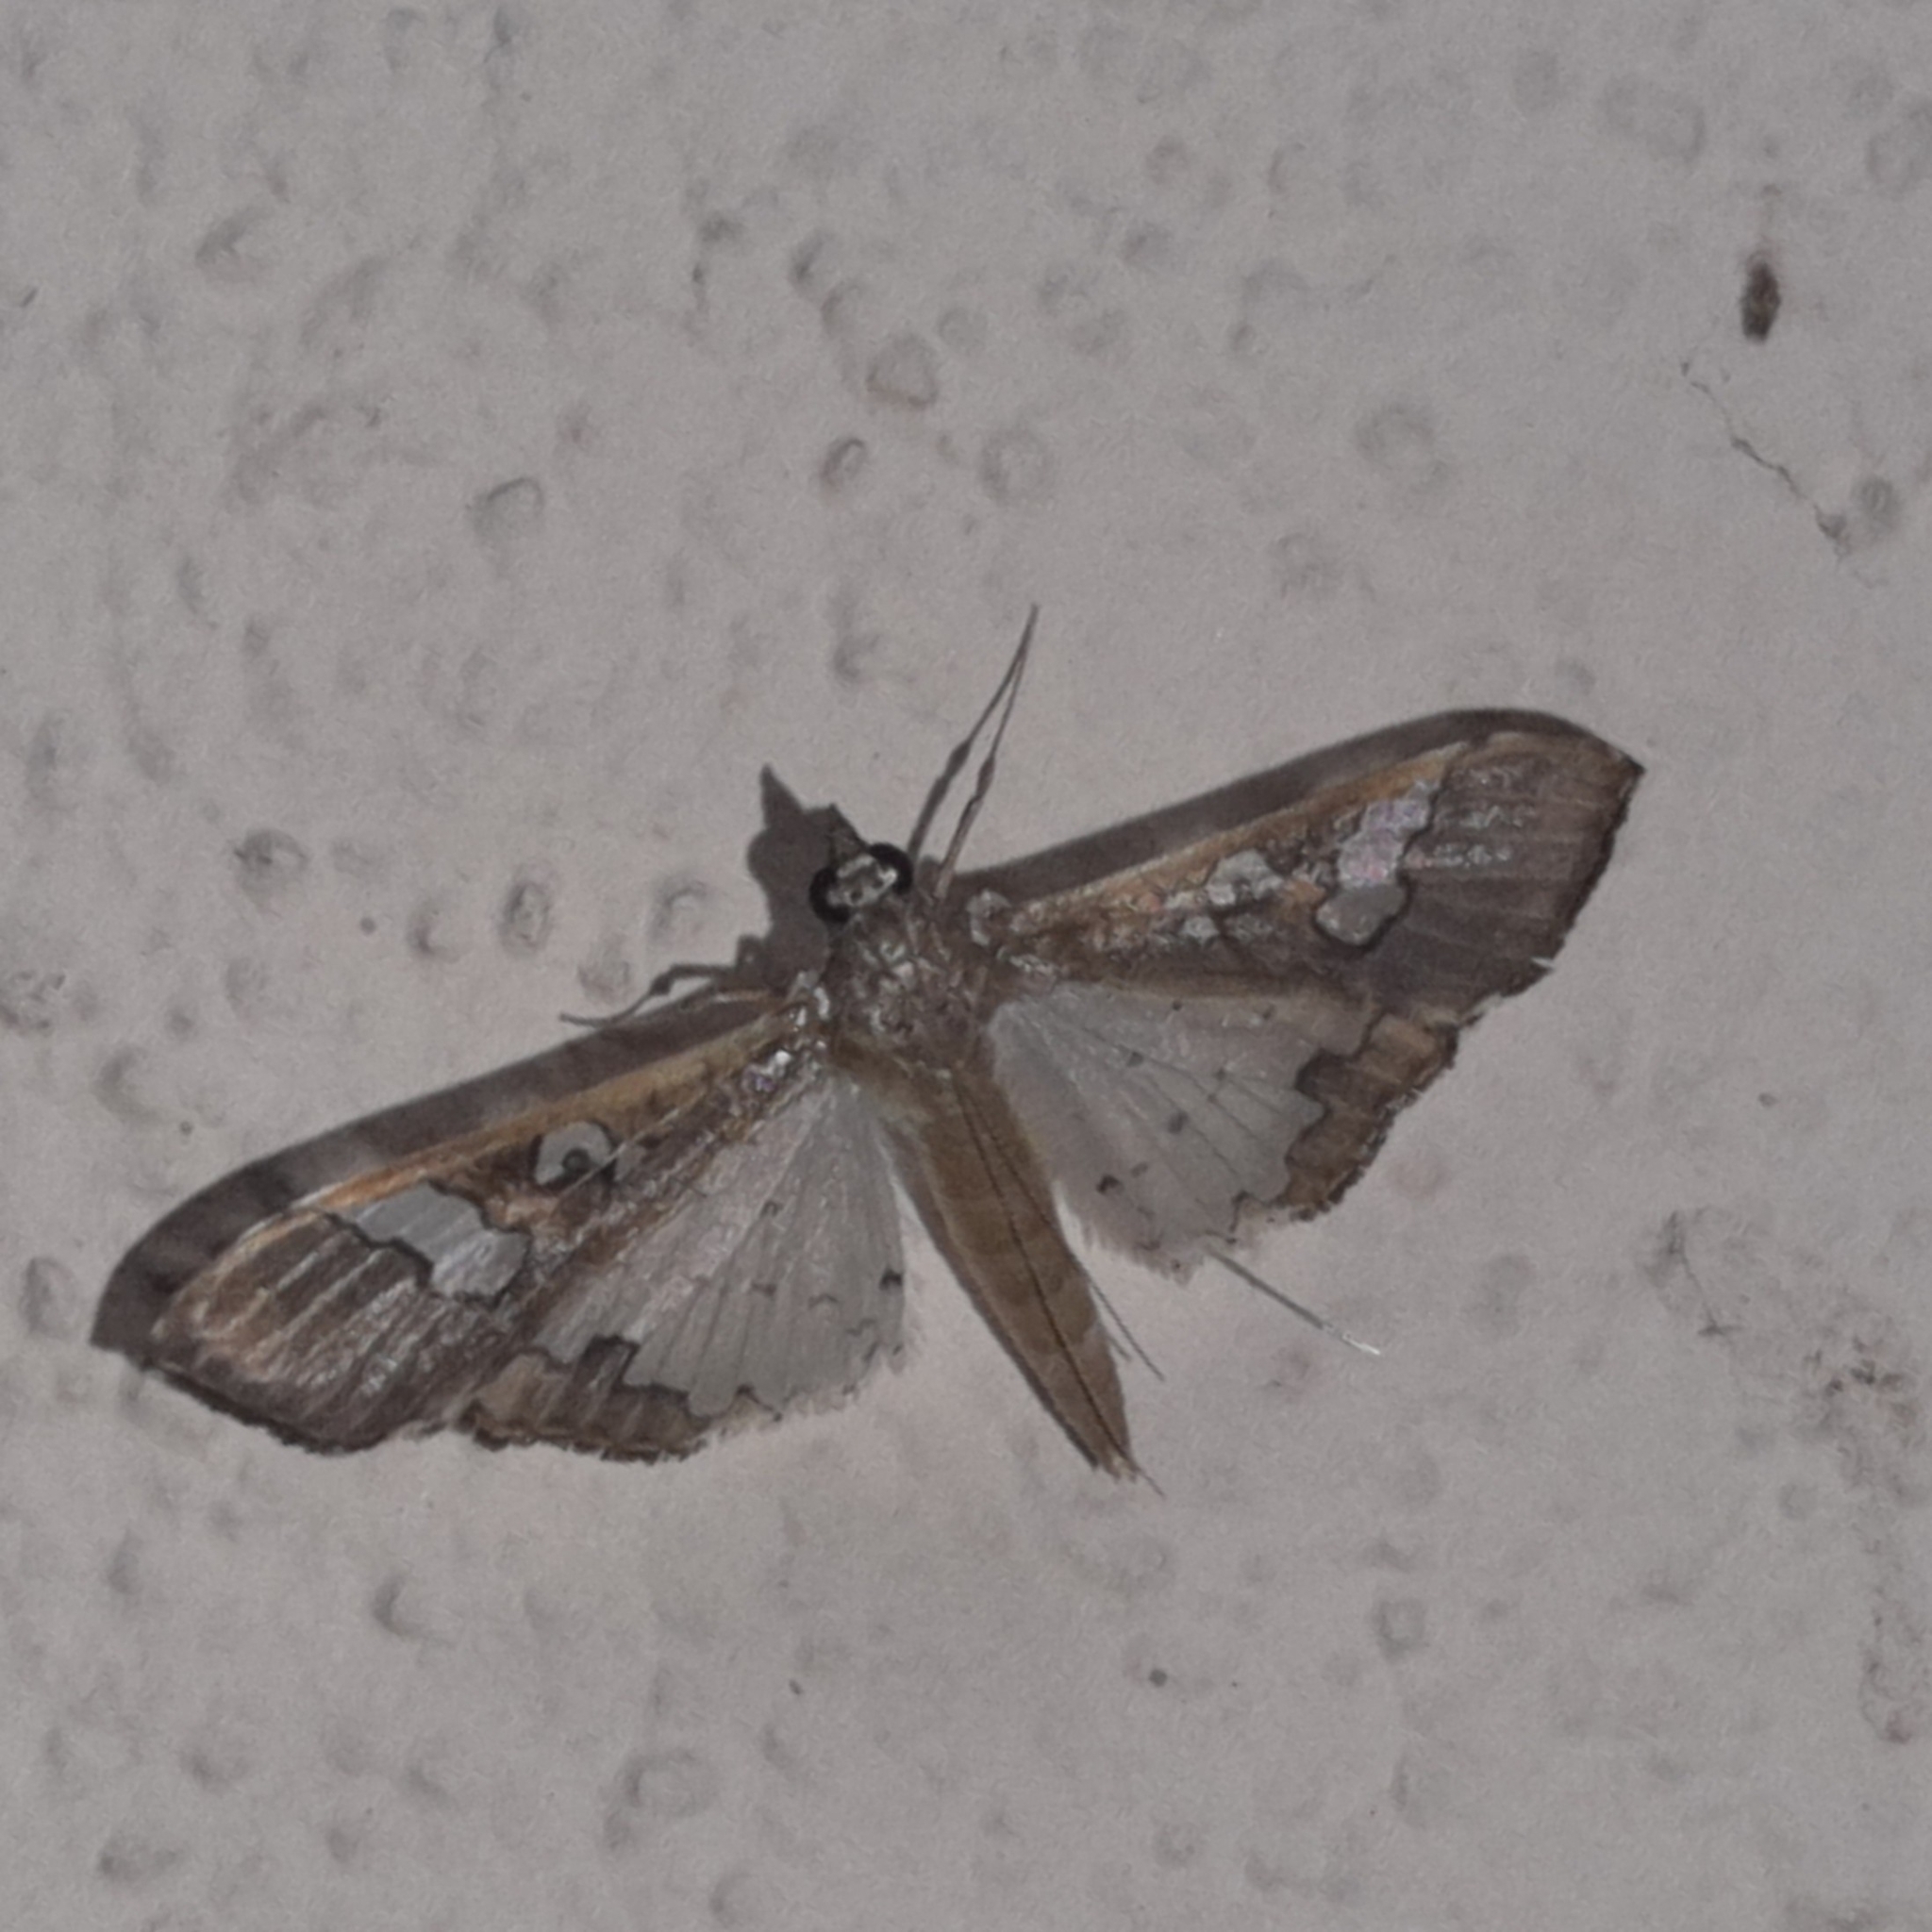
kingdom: Animalia
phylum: Arthropoda
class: Insecta
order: Lepidoptera
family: Crambidae
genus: Maruca
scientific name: Maruca vitrata
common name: Maruca pod borer
